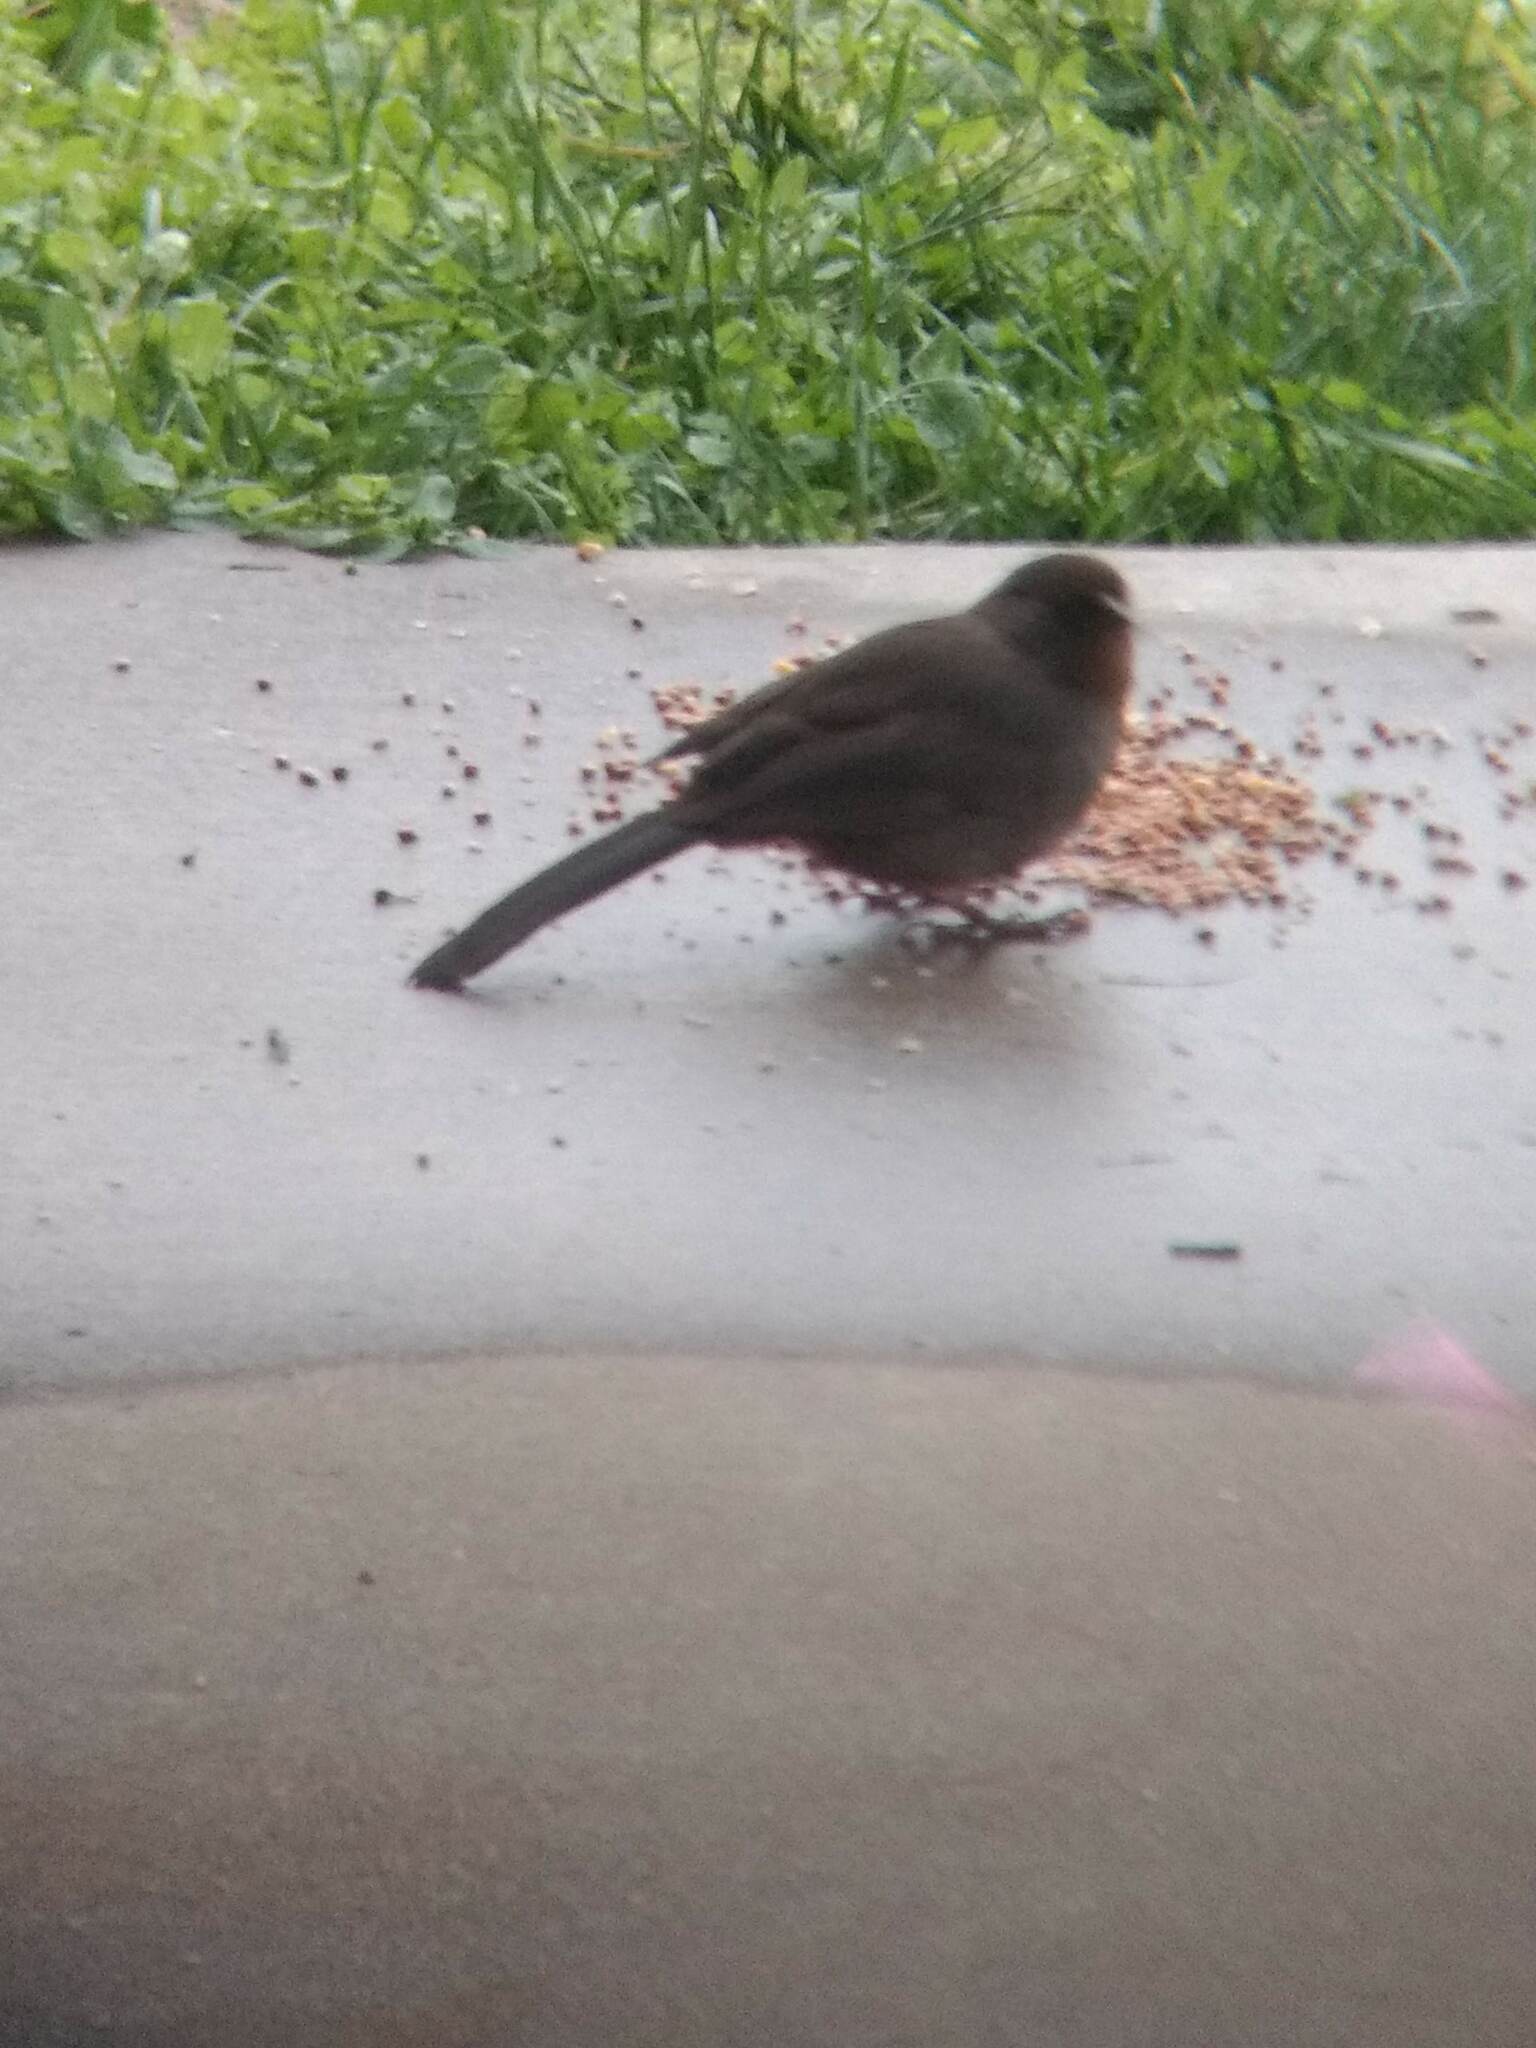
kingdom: Animalia
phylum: Chordata
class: Aves
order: Passeriformes
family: Passerellidae
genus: Melozone
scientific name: Melozone crissalis
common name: California towhee
